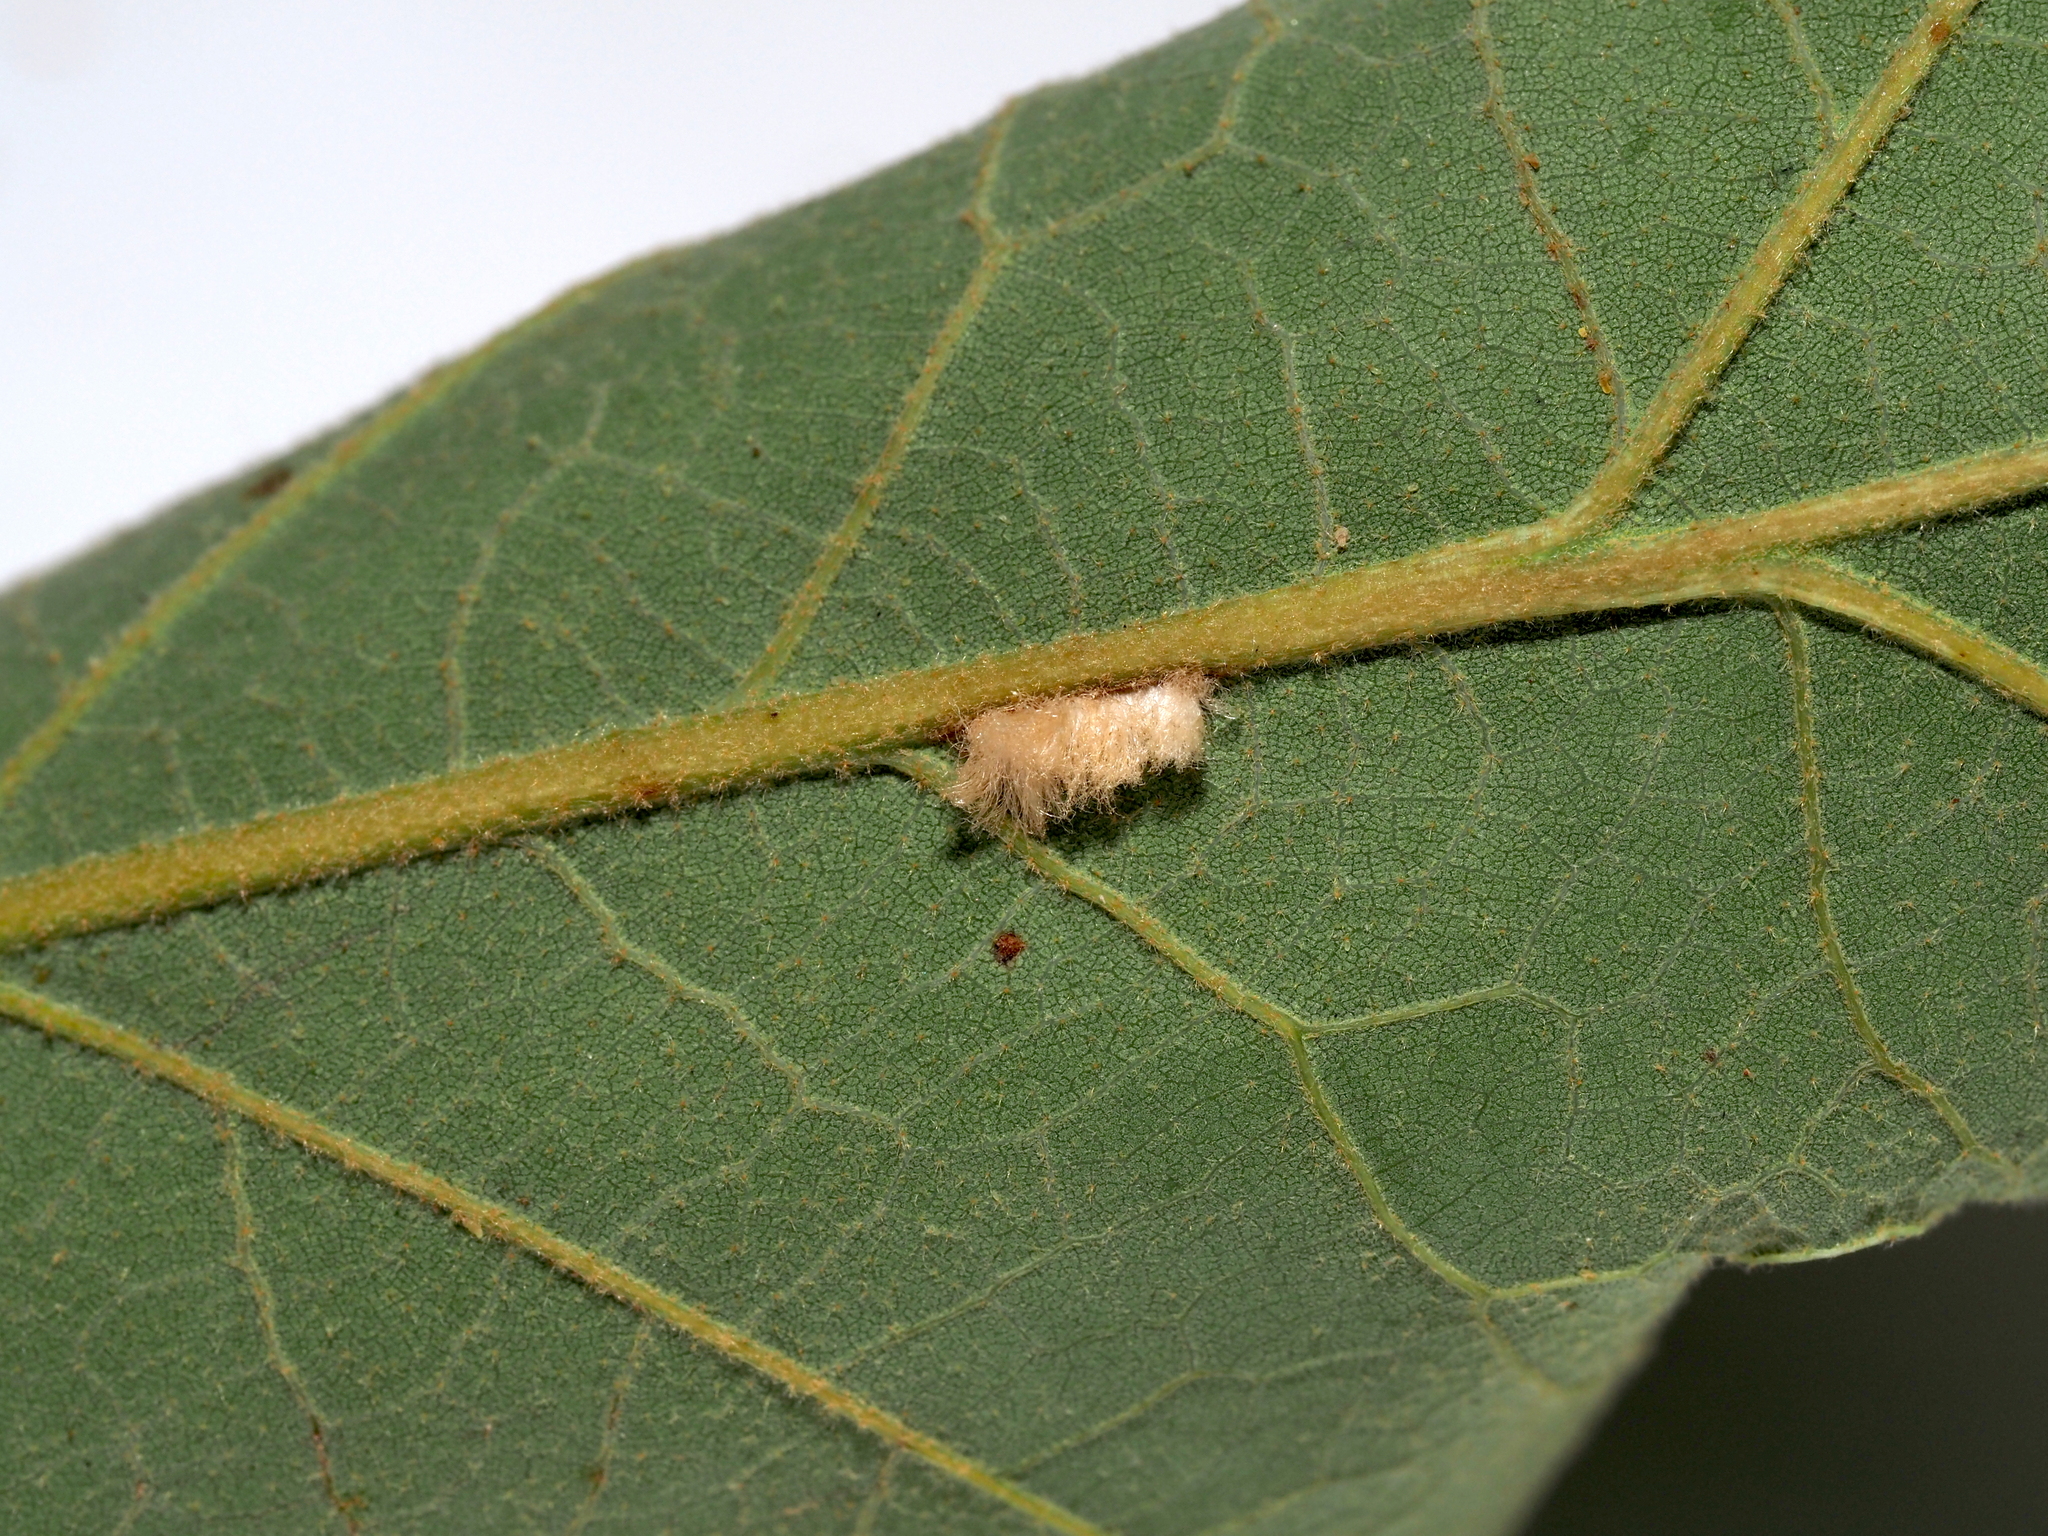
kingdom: Animalia
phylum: Arthropoda
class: Insecta
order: Hymenoptera
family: Cynipidae
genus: Andricus
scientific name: Andricus Druon pattoni
